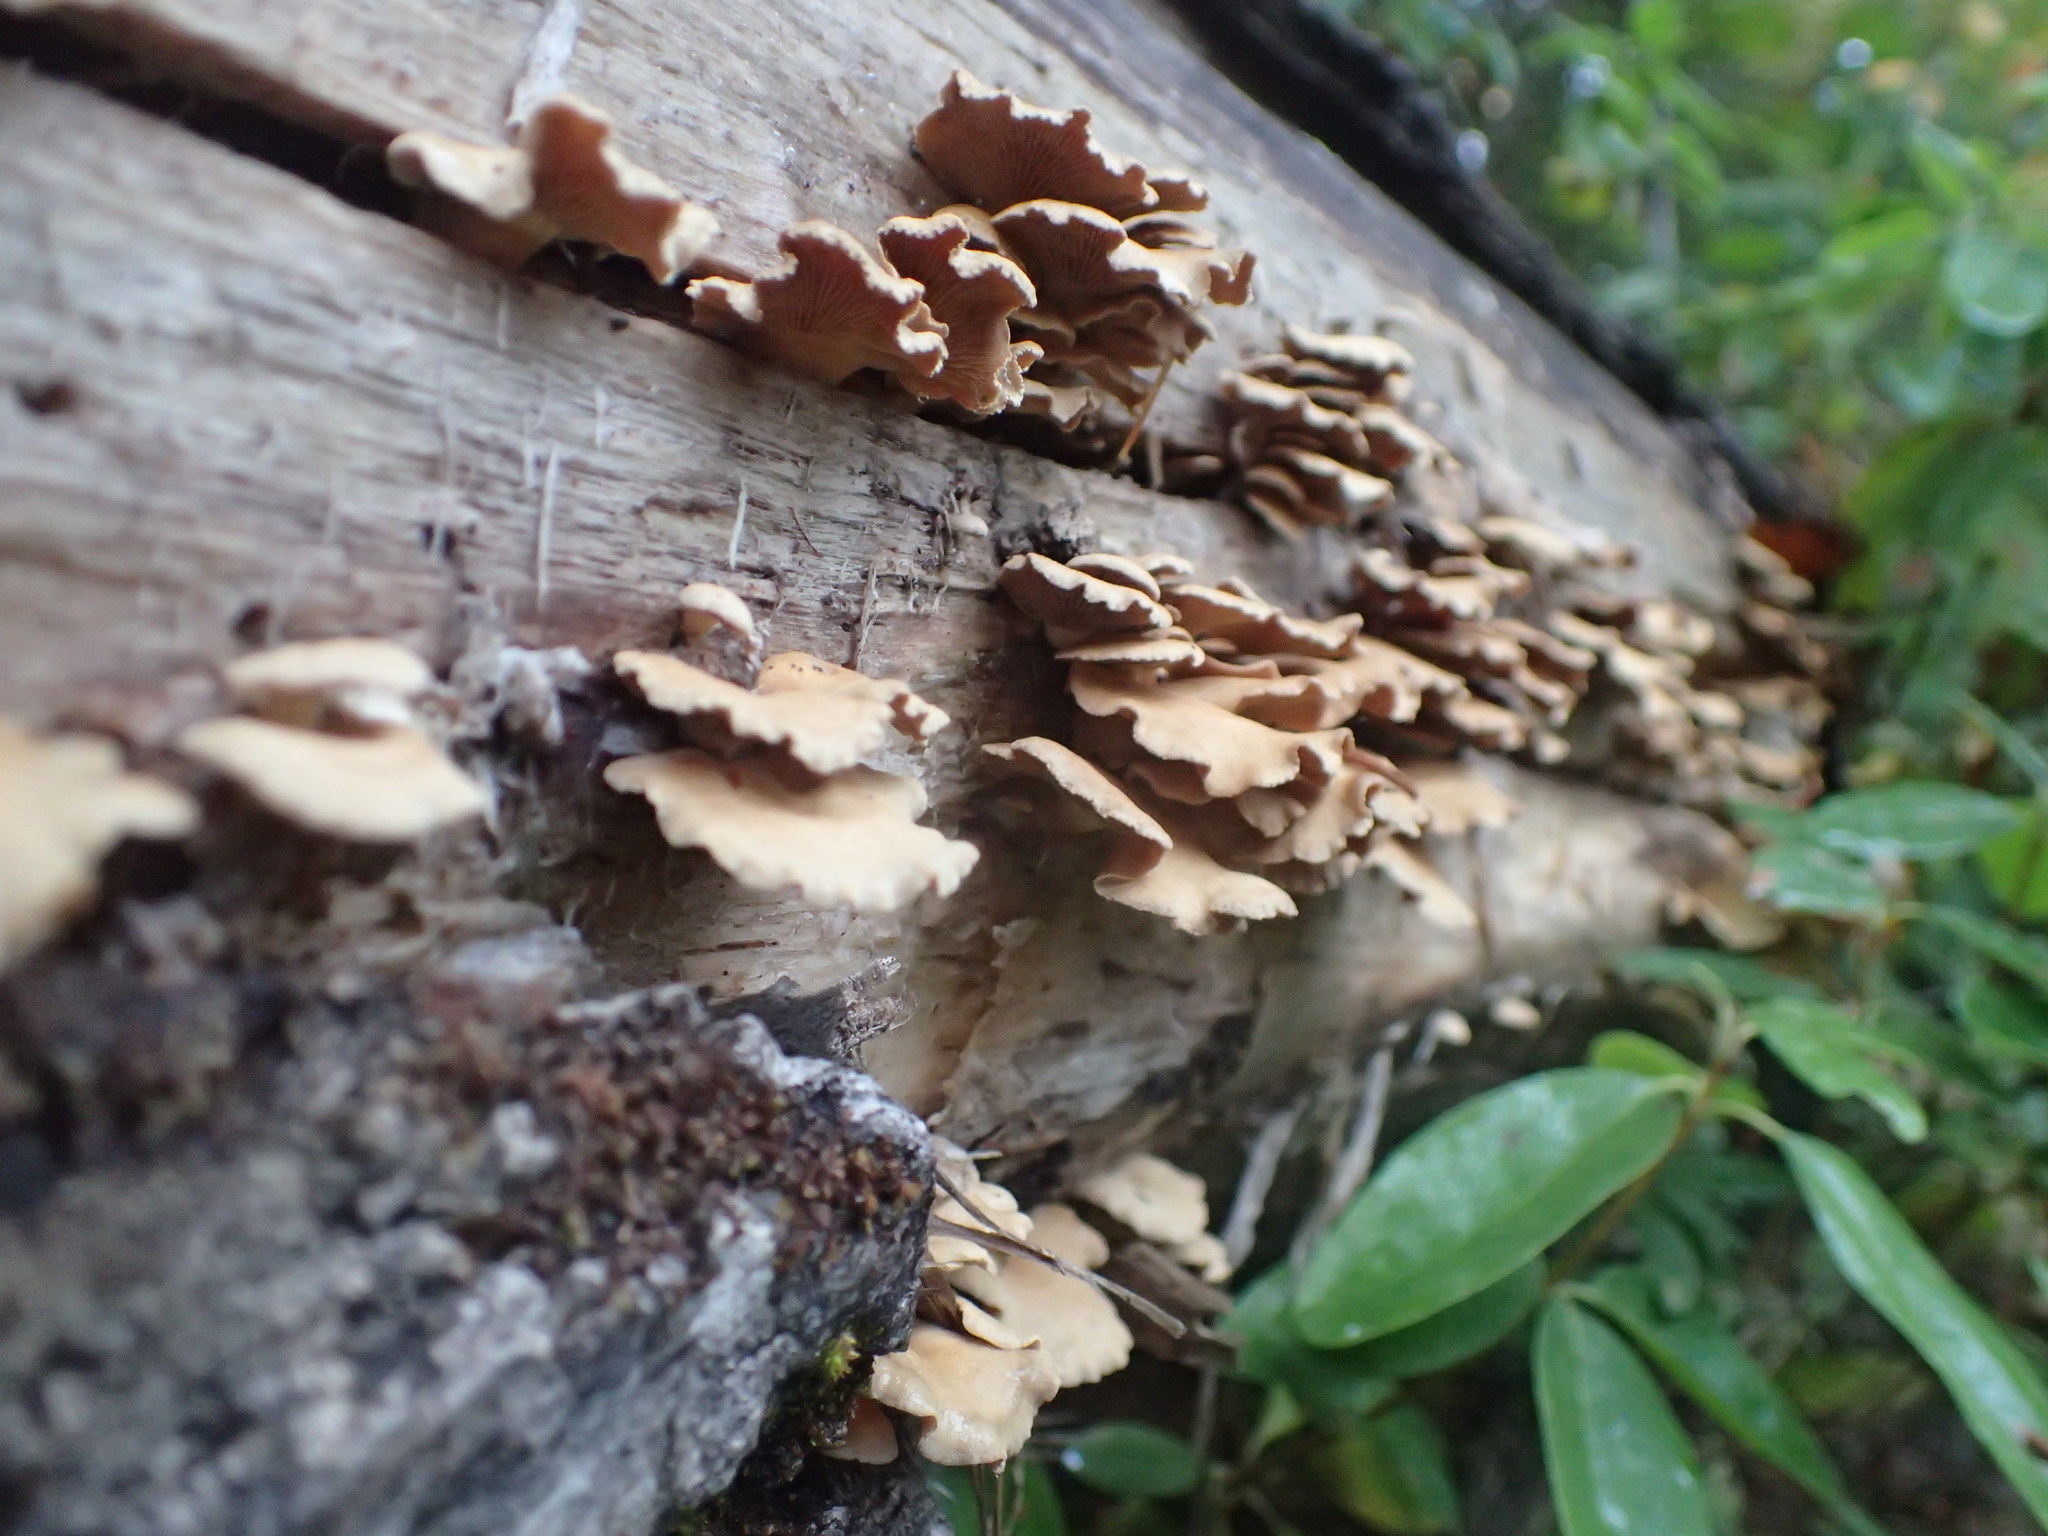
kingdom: Fungi
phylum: Basidiomycota
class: Agaricomycetes
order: Agaricales
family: Mycenaceae
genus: Panellus
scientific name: Panellus stipticus
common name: Bitter oysterling
